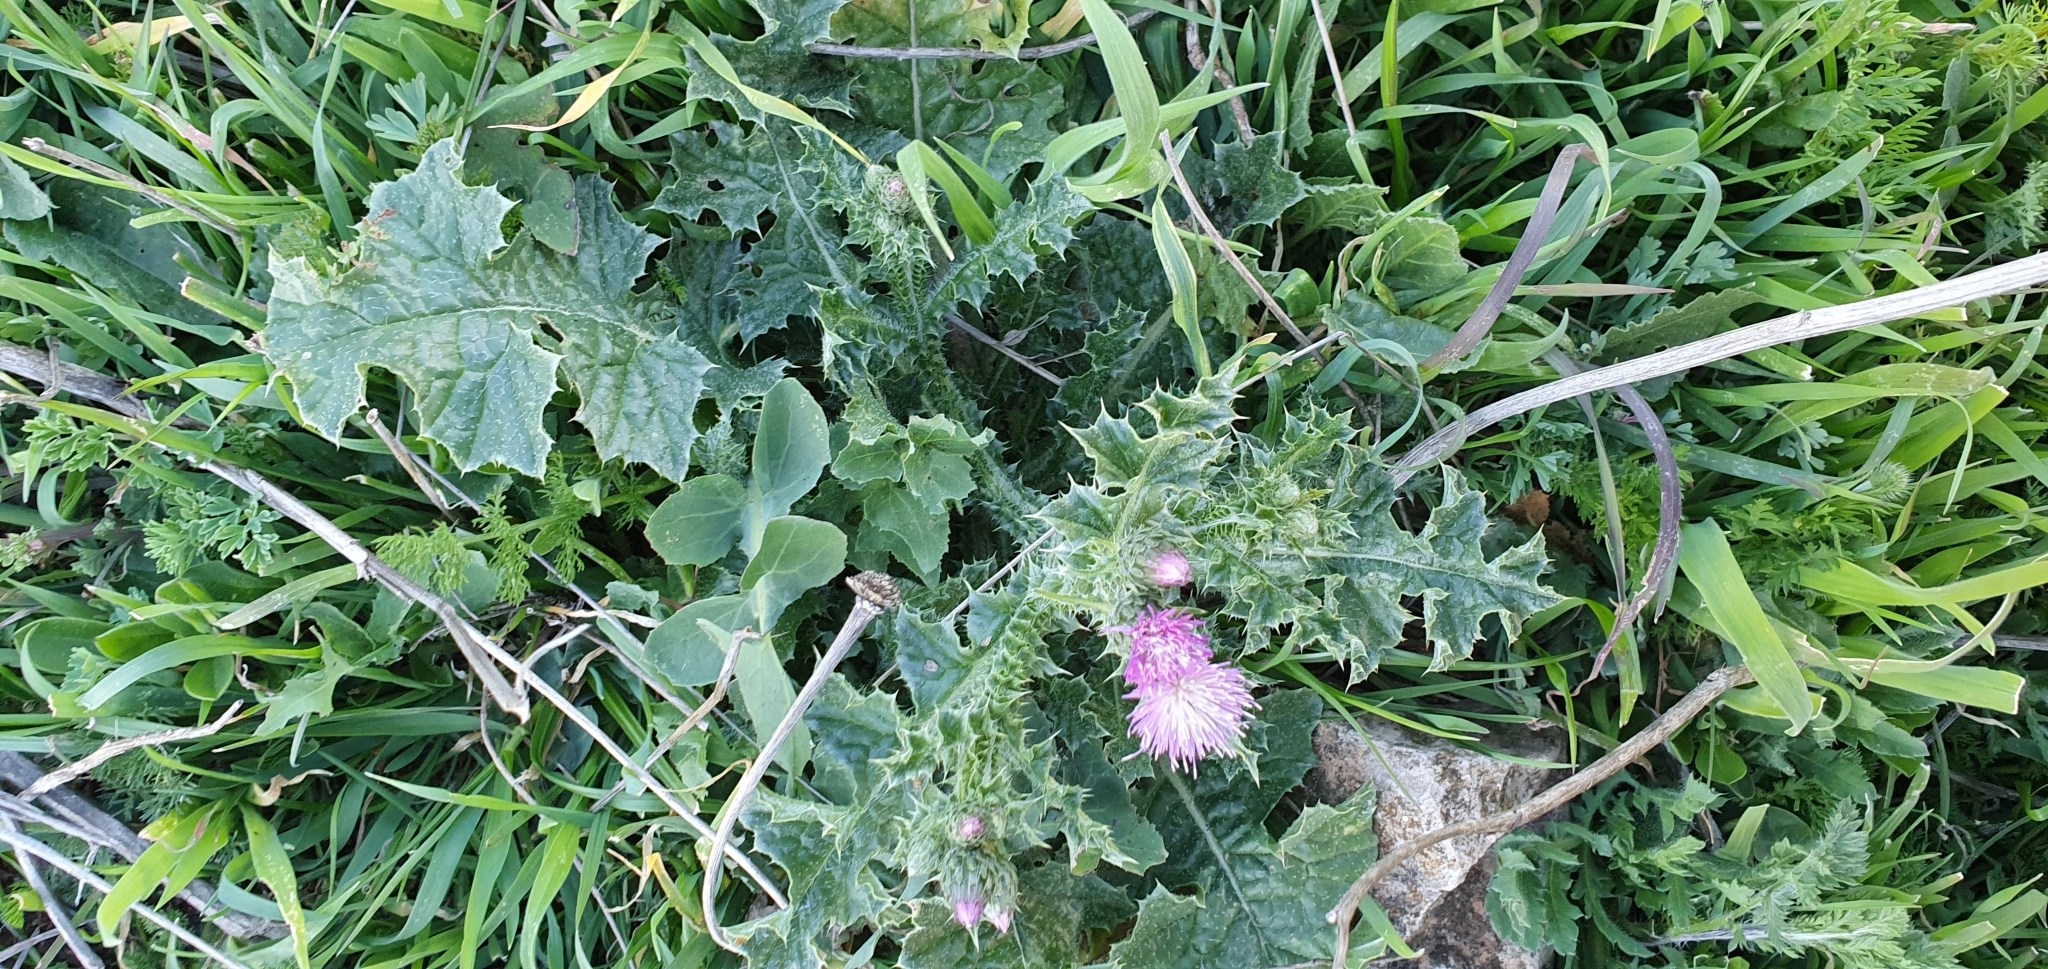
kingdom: Plantae
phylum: Tracheophyta
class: Magnoliopsida
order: Asterales
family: Asteraceae
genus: Carduus
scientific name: Carduus spachianus
